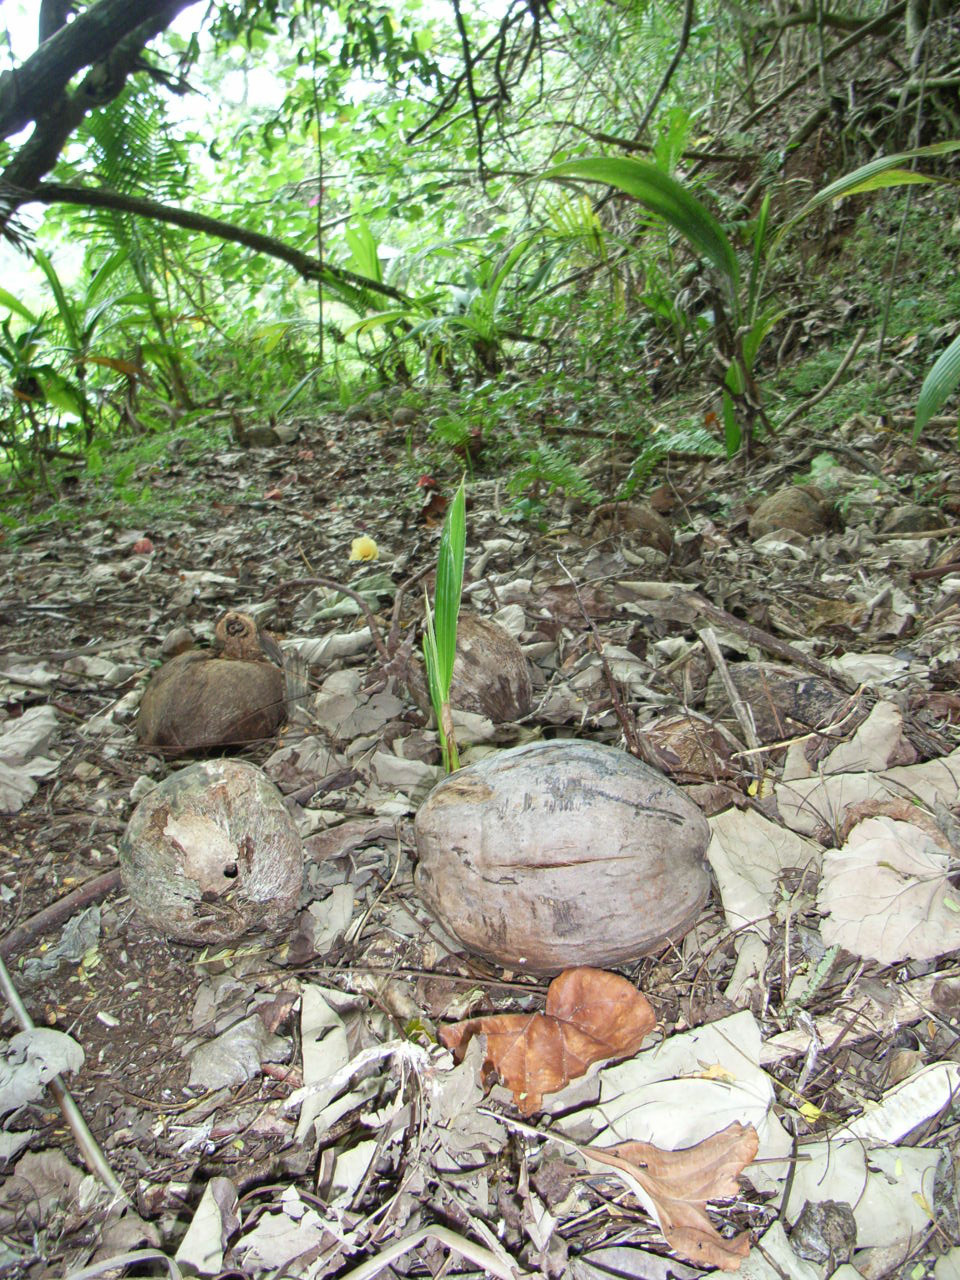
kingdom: Plantae
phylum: Tracheophyta
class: Liliopsida
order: Arecales
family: Arecaceae
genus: Cocos
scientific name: Cocos nucifera
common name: Coconut palm
